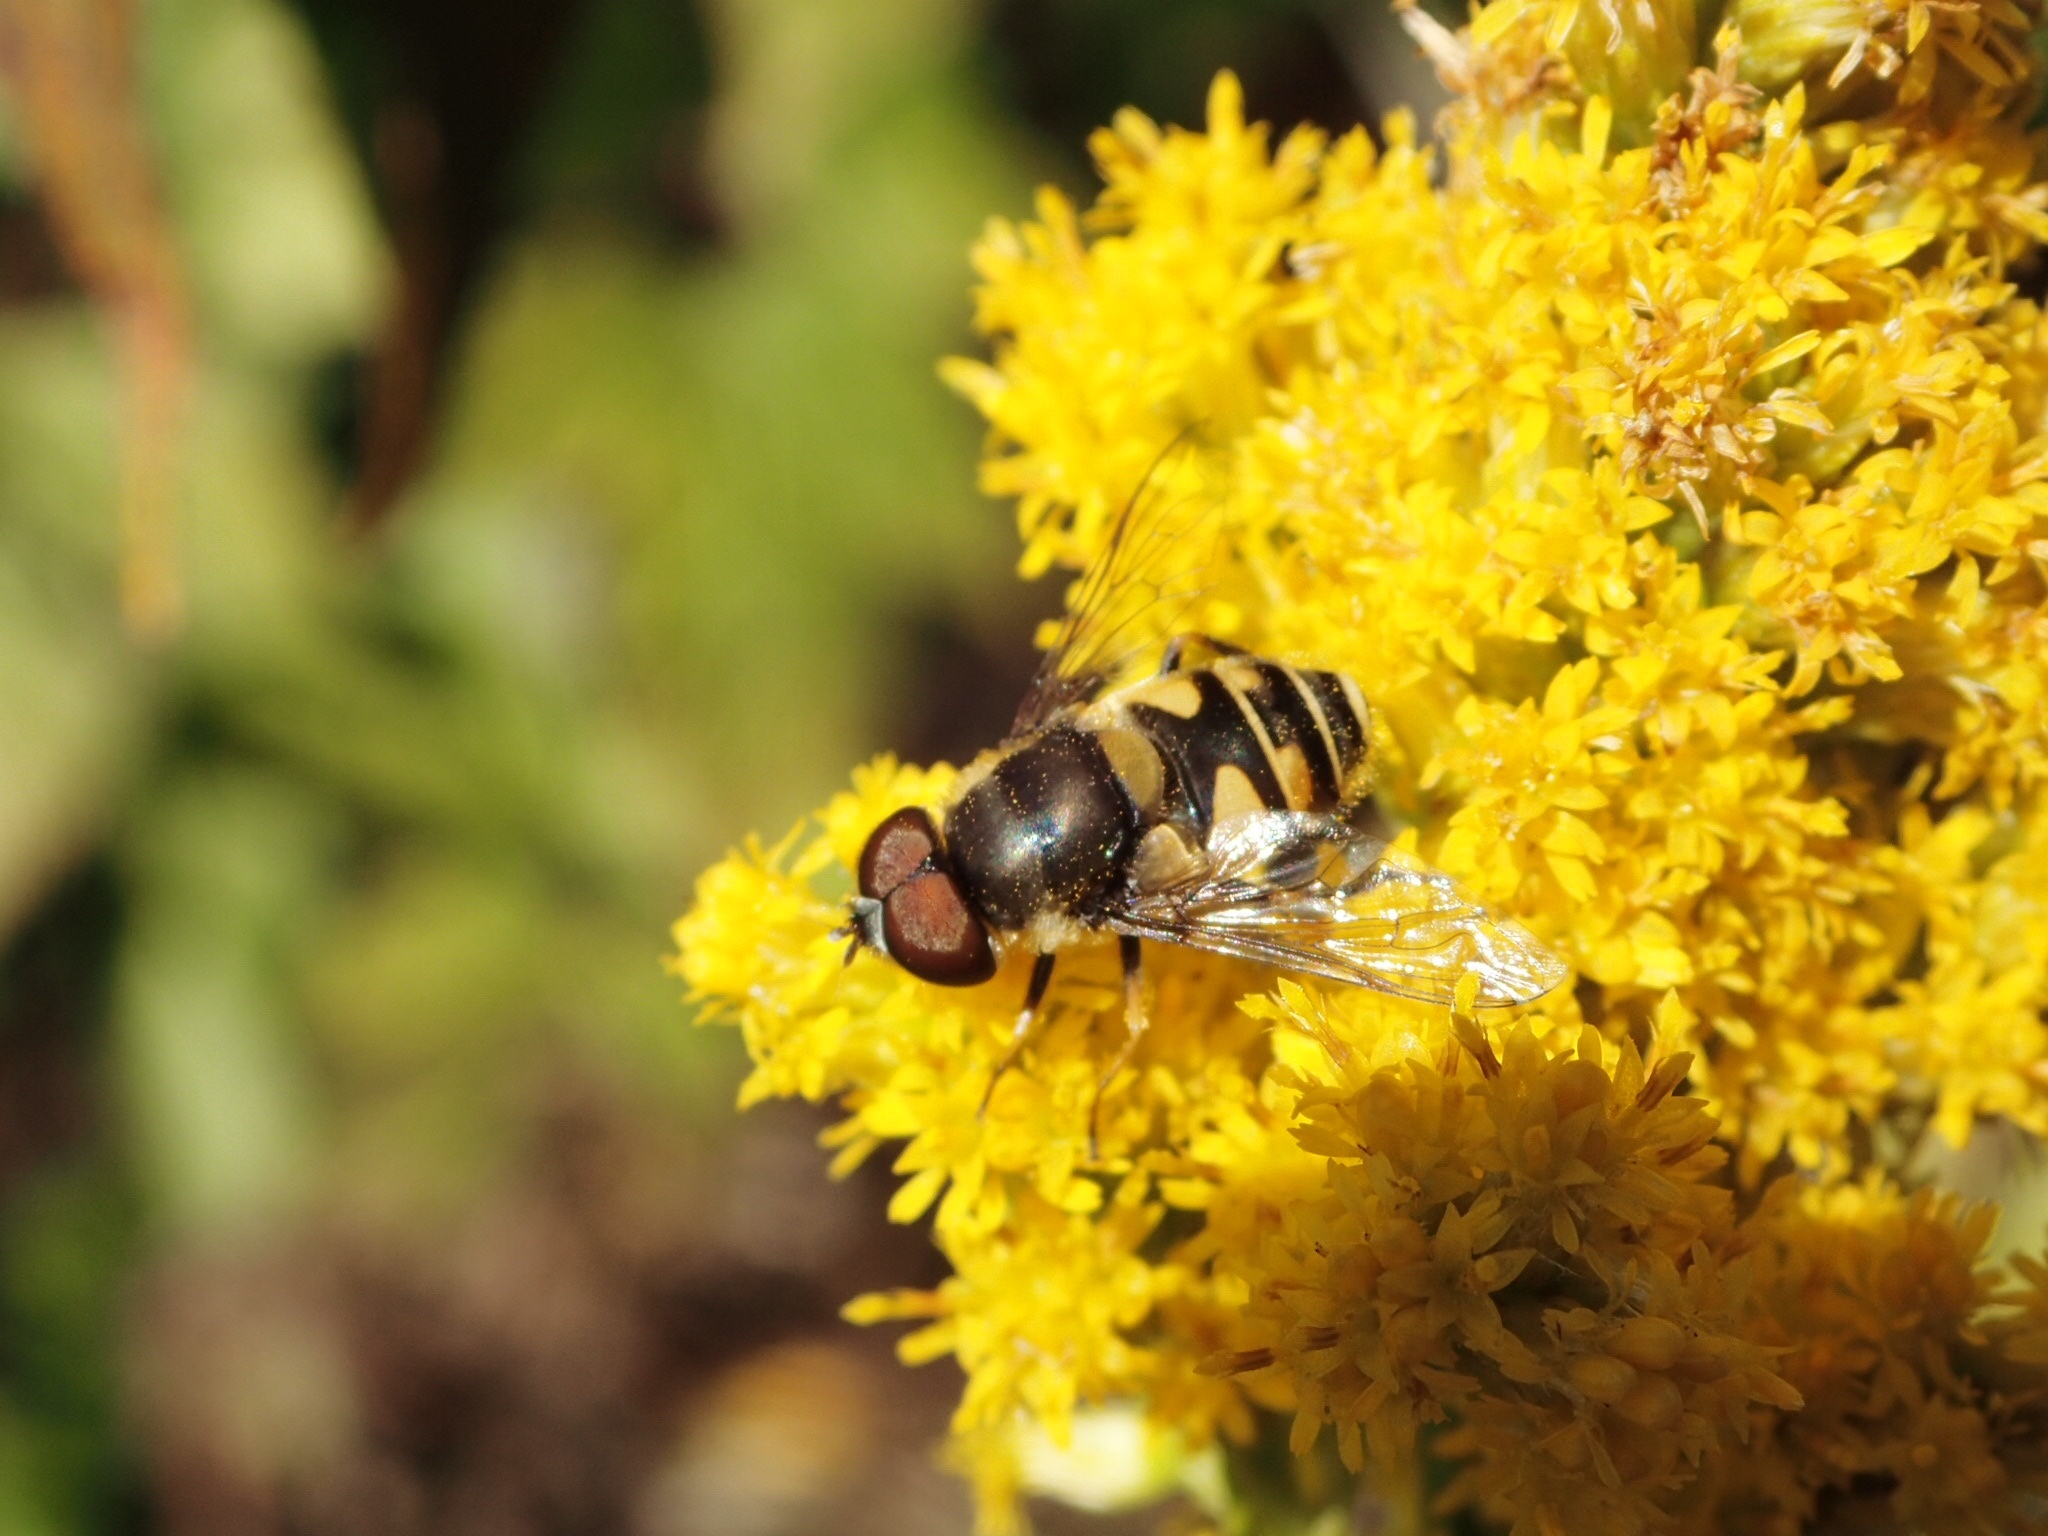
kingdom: Animalia
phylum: Arthropoda
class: Insecta
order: Diptera
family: Syrphidae
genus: Eristalis
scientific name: Eristalis transversa
